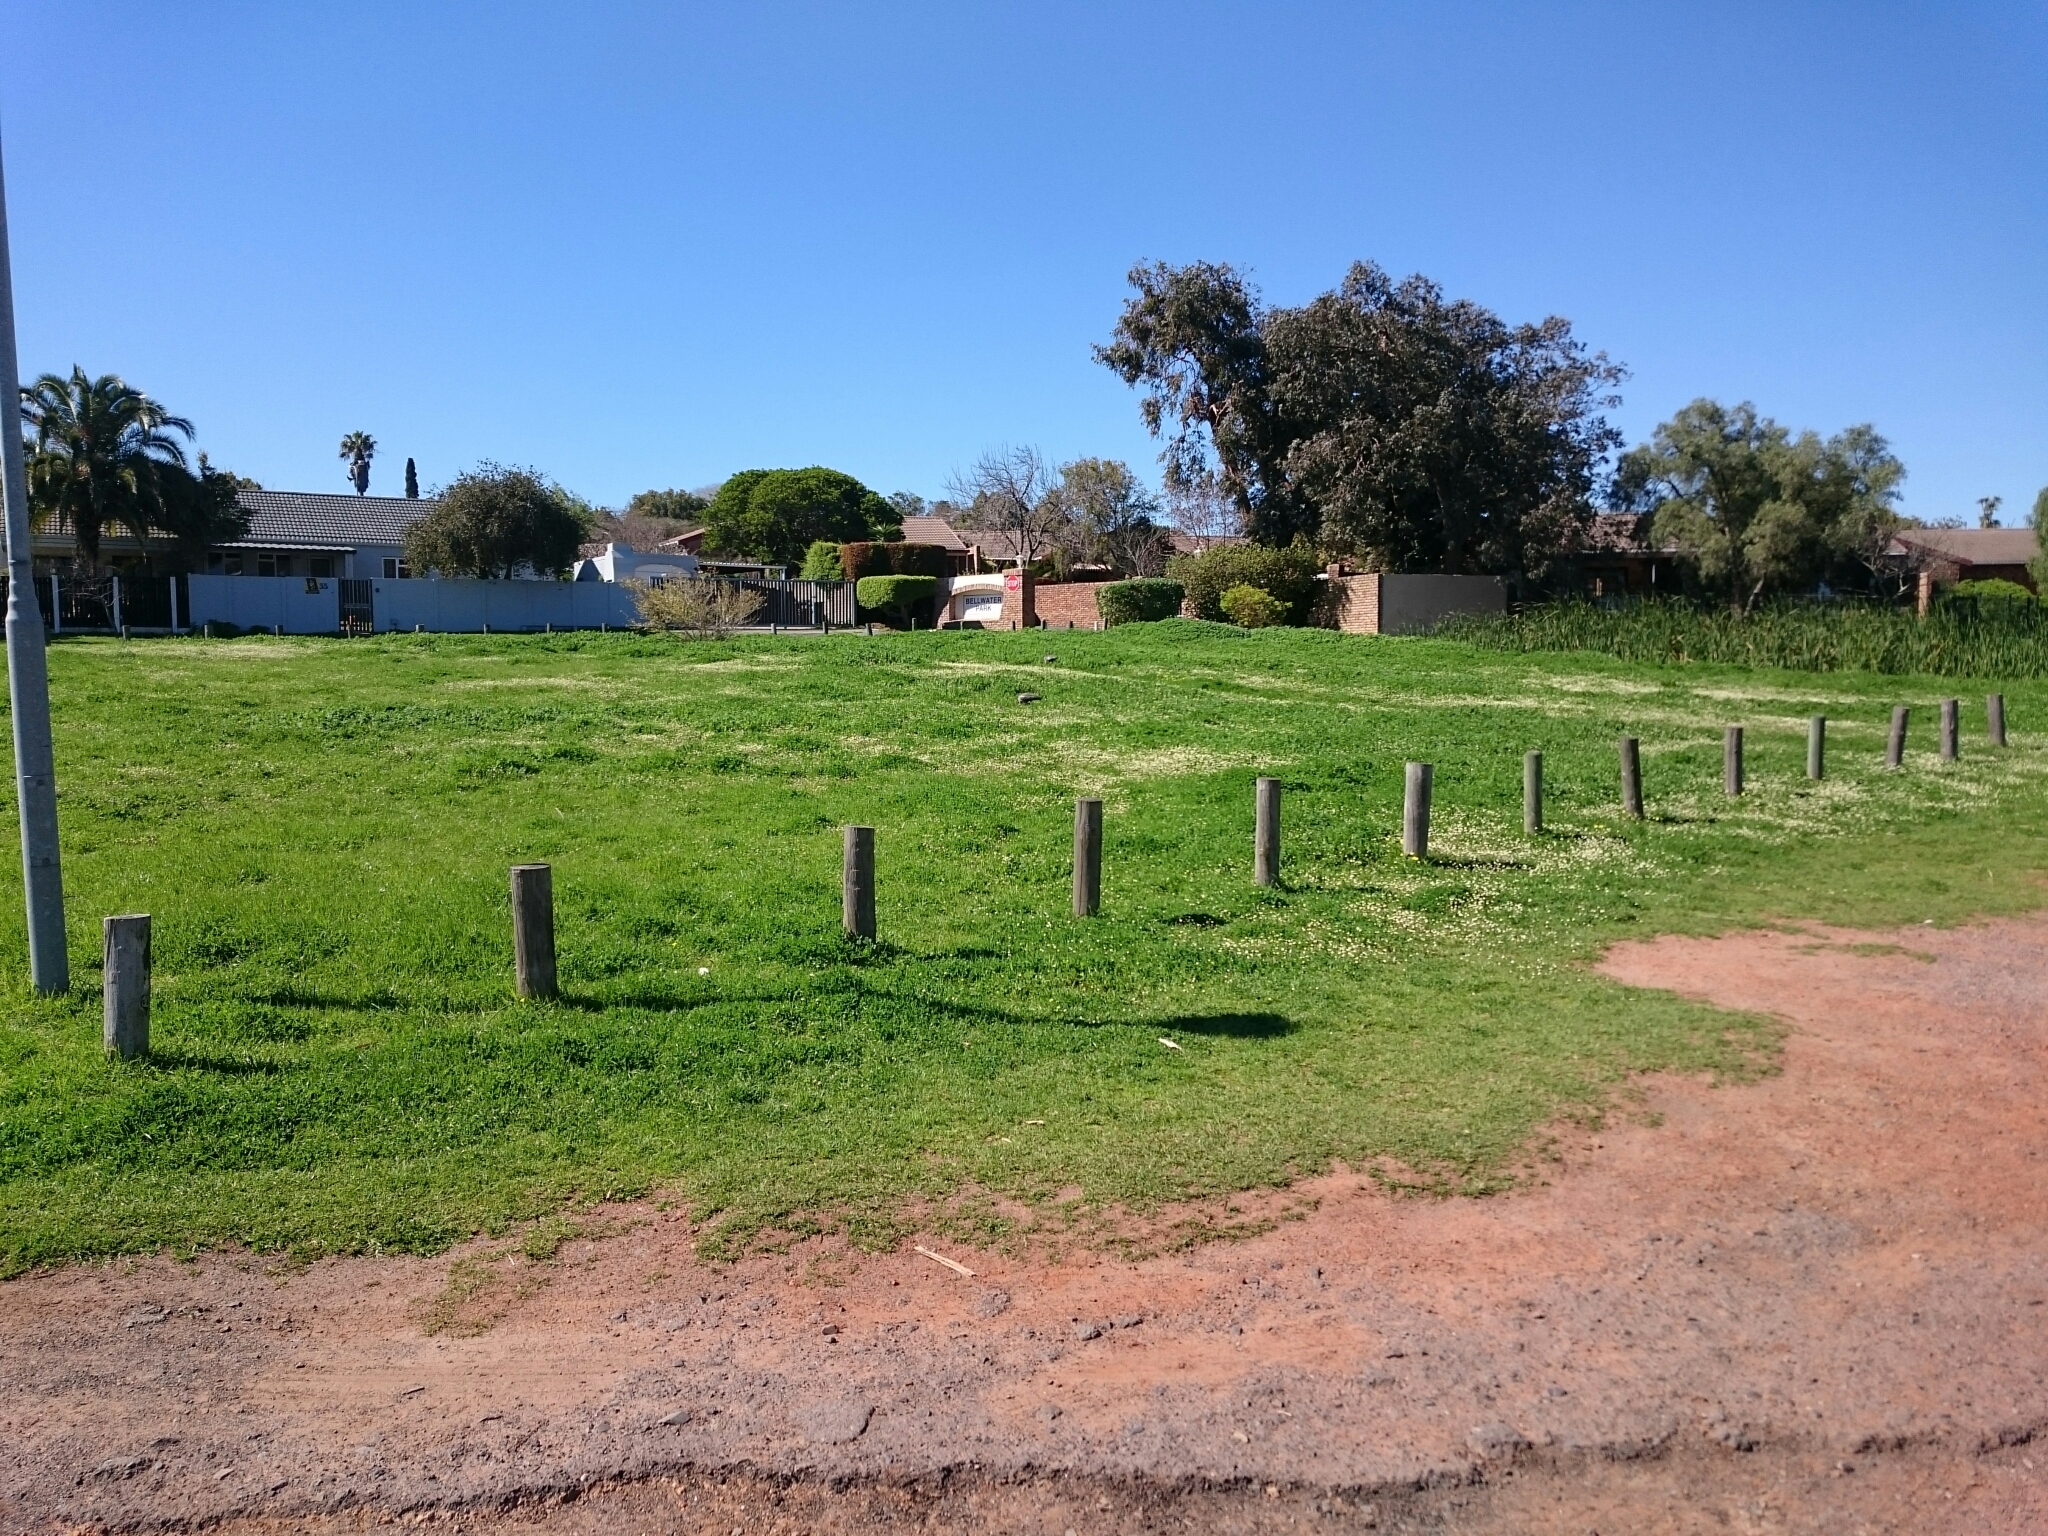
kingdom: Animalia
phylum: Chordata
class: Aves
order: Pelecaniformes
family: Threskiornithidae
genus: Bostrychia
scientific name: Bostrychia hagedash
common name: Hadada ibis
